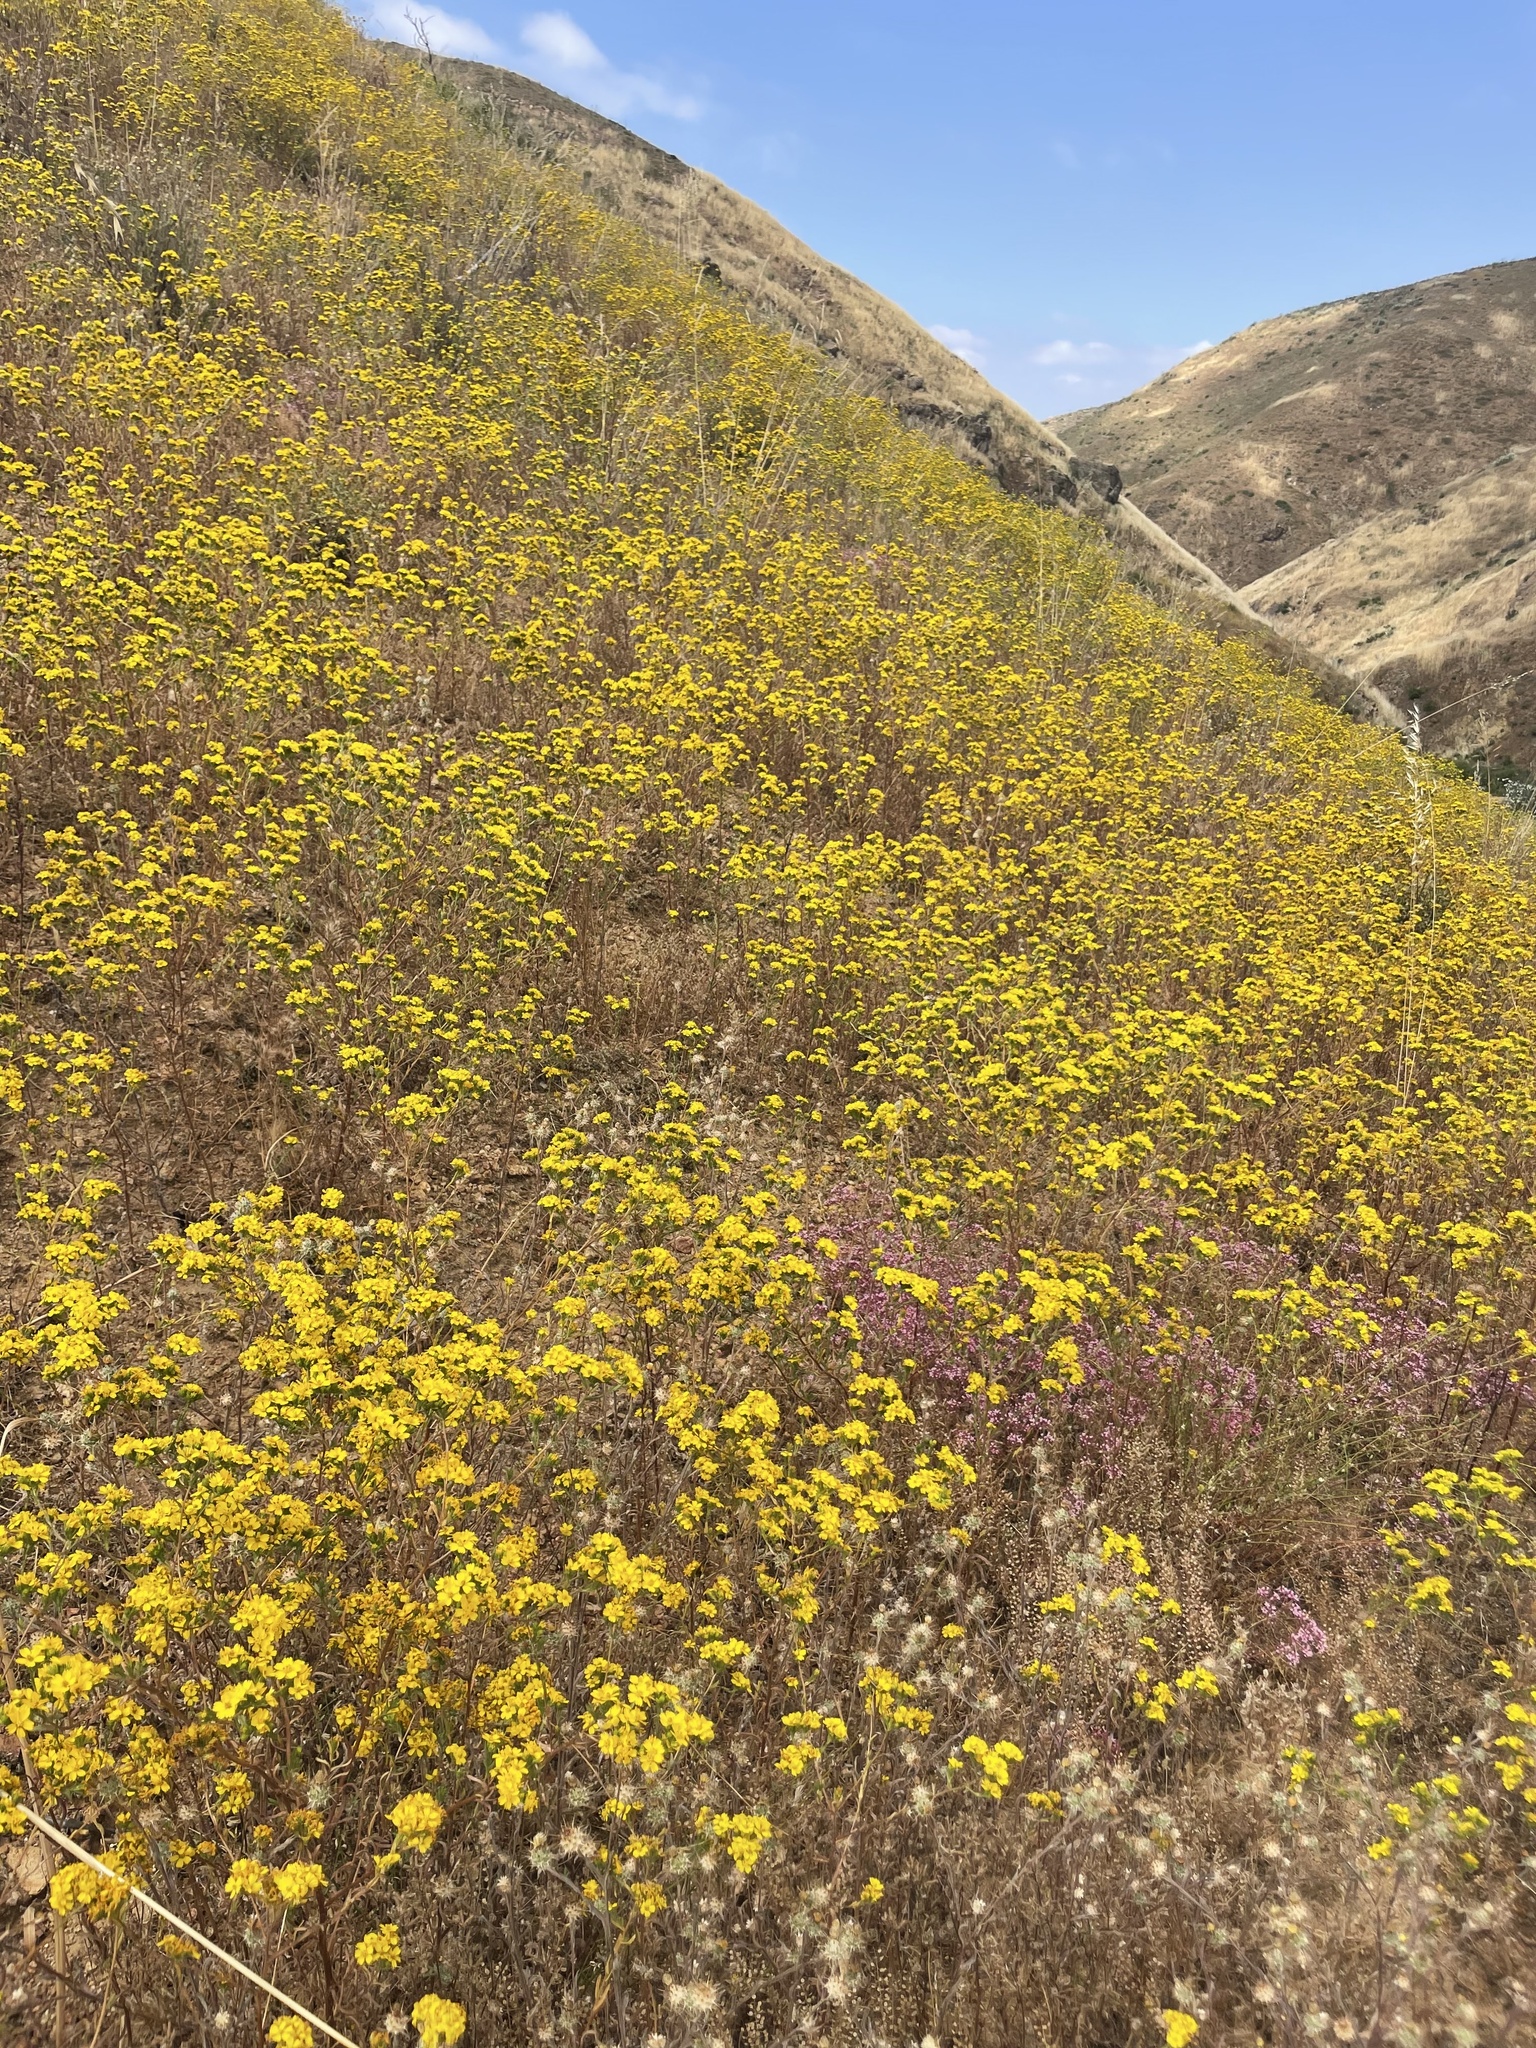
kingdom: Plantae
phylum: Tracheophyta
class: Magnoliopsida
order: Asterales
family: Asteraceae
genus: Deinandra
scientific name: Deinandra fasciculata
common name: Clustered tarweed
